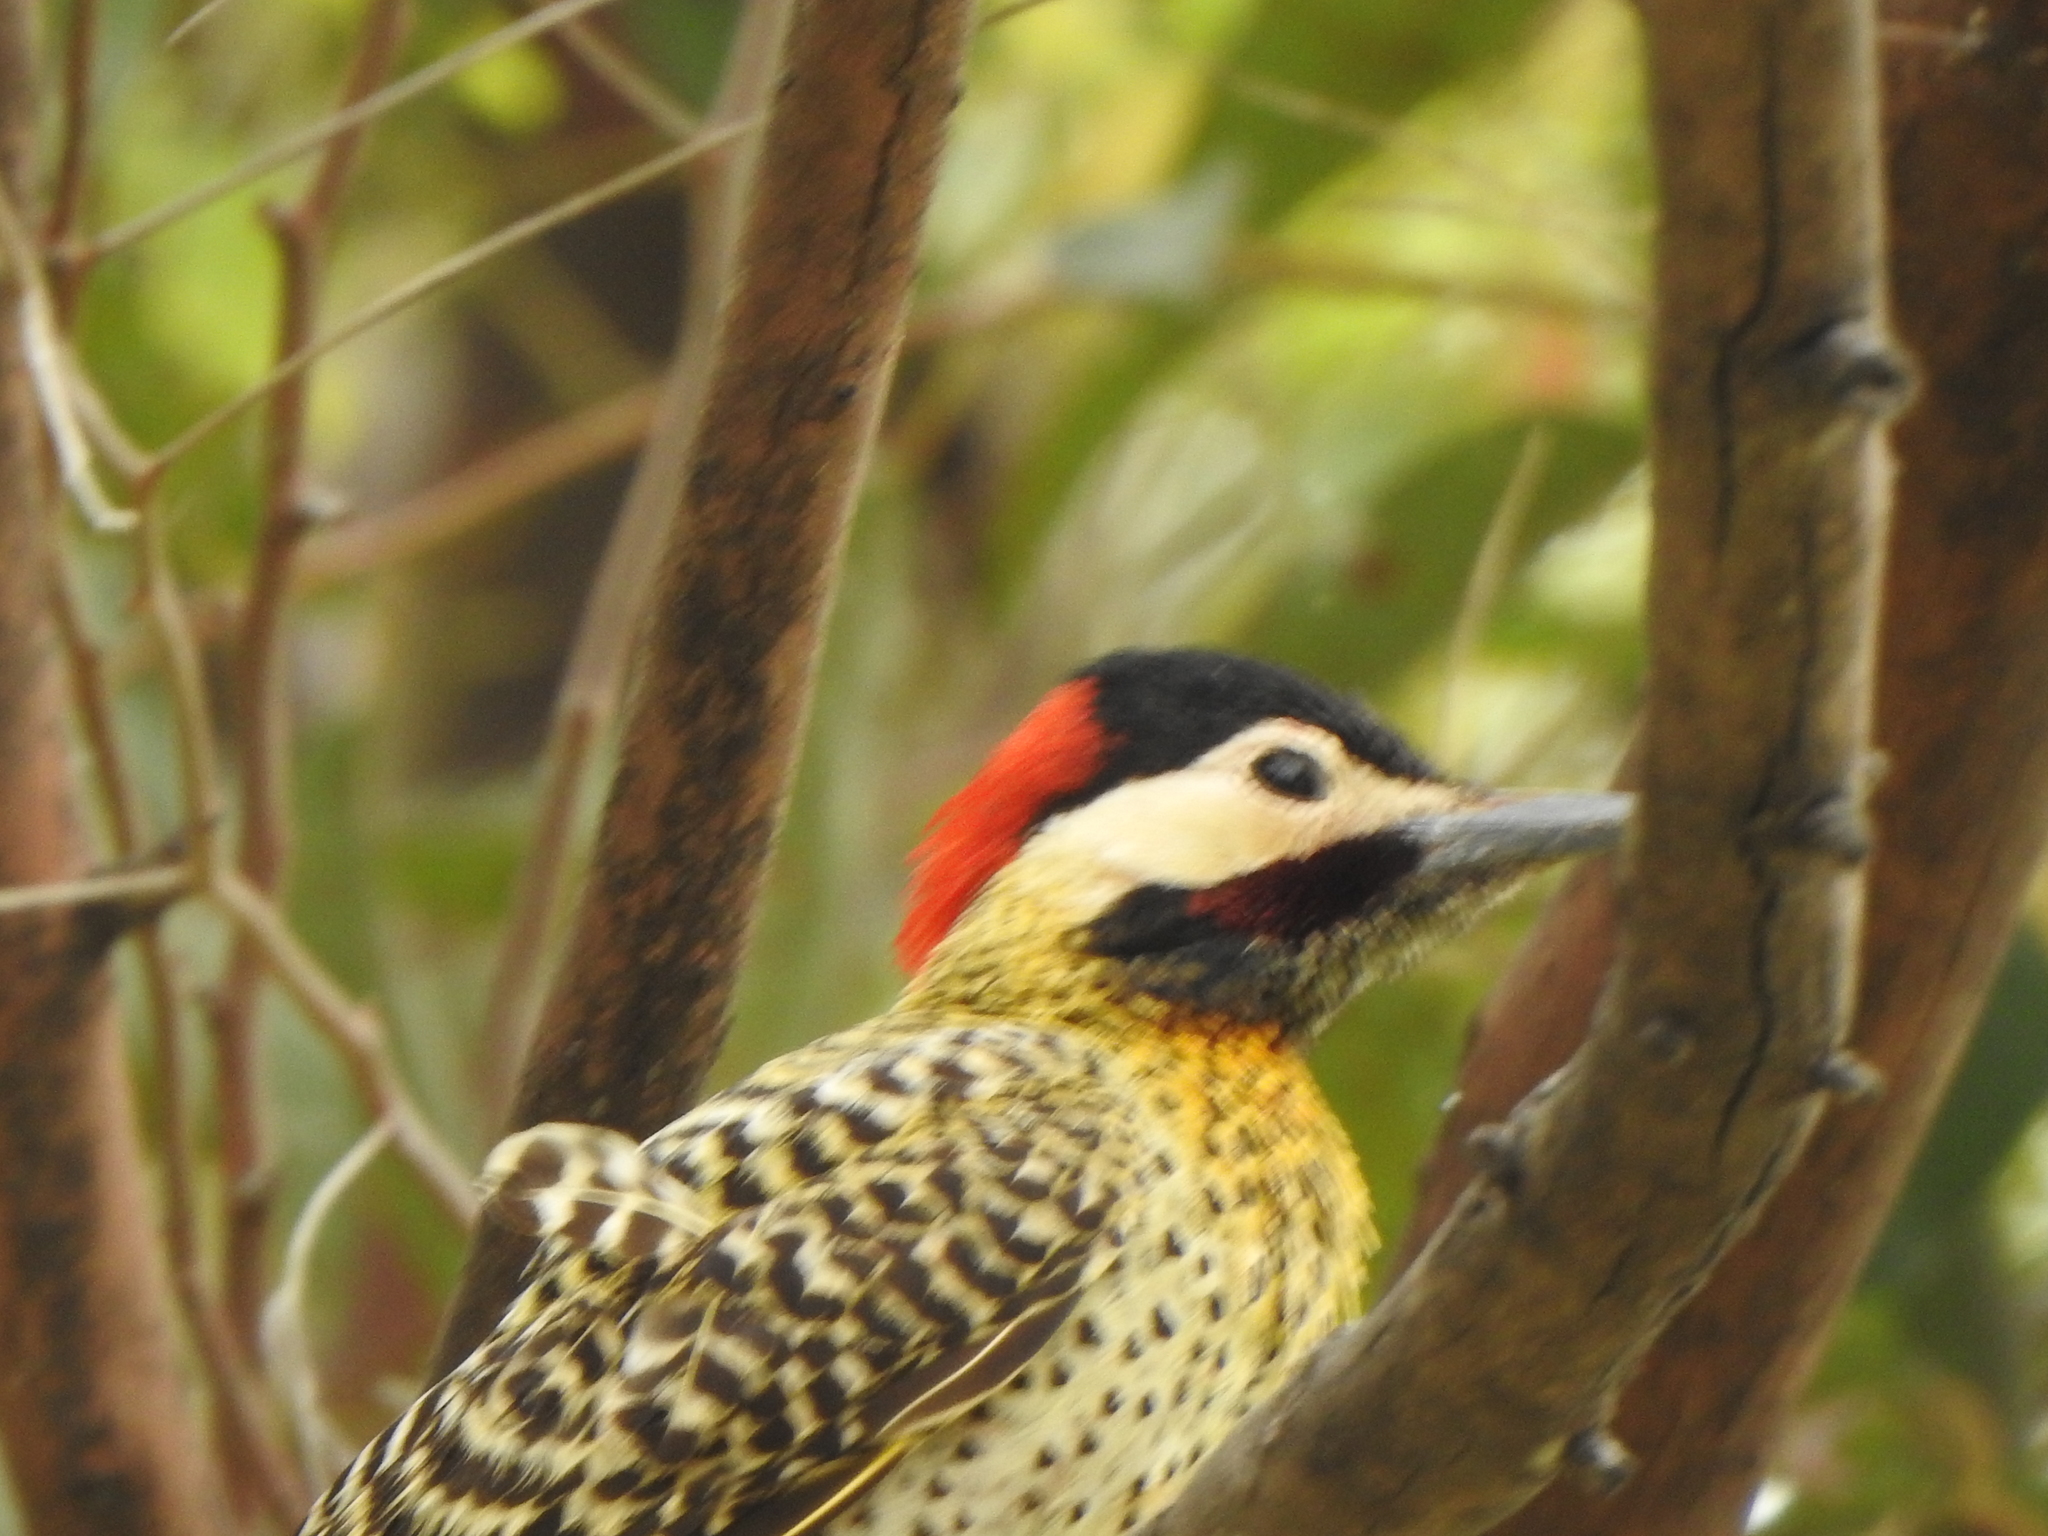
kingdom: Animalia
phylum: Chordata
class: Aves
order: Piciformes
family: Picidae
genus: Colaptes
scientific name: Colaptes melanochloros
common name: Green-barred woodpecker
